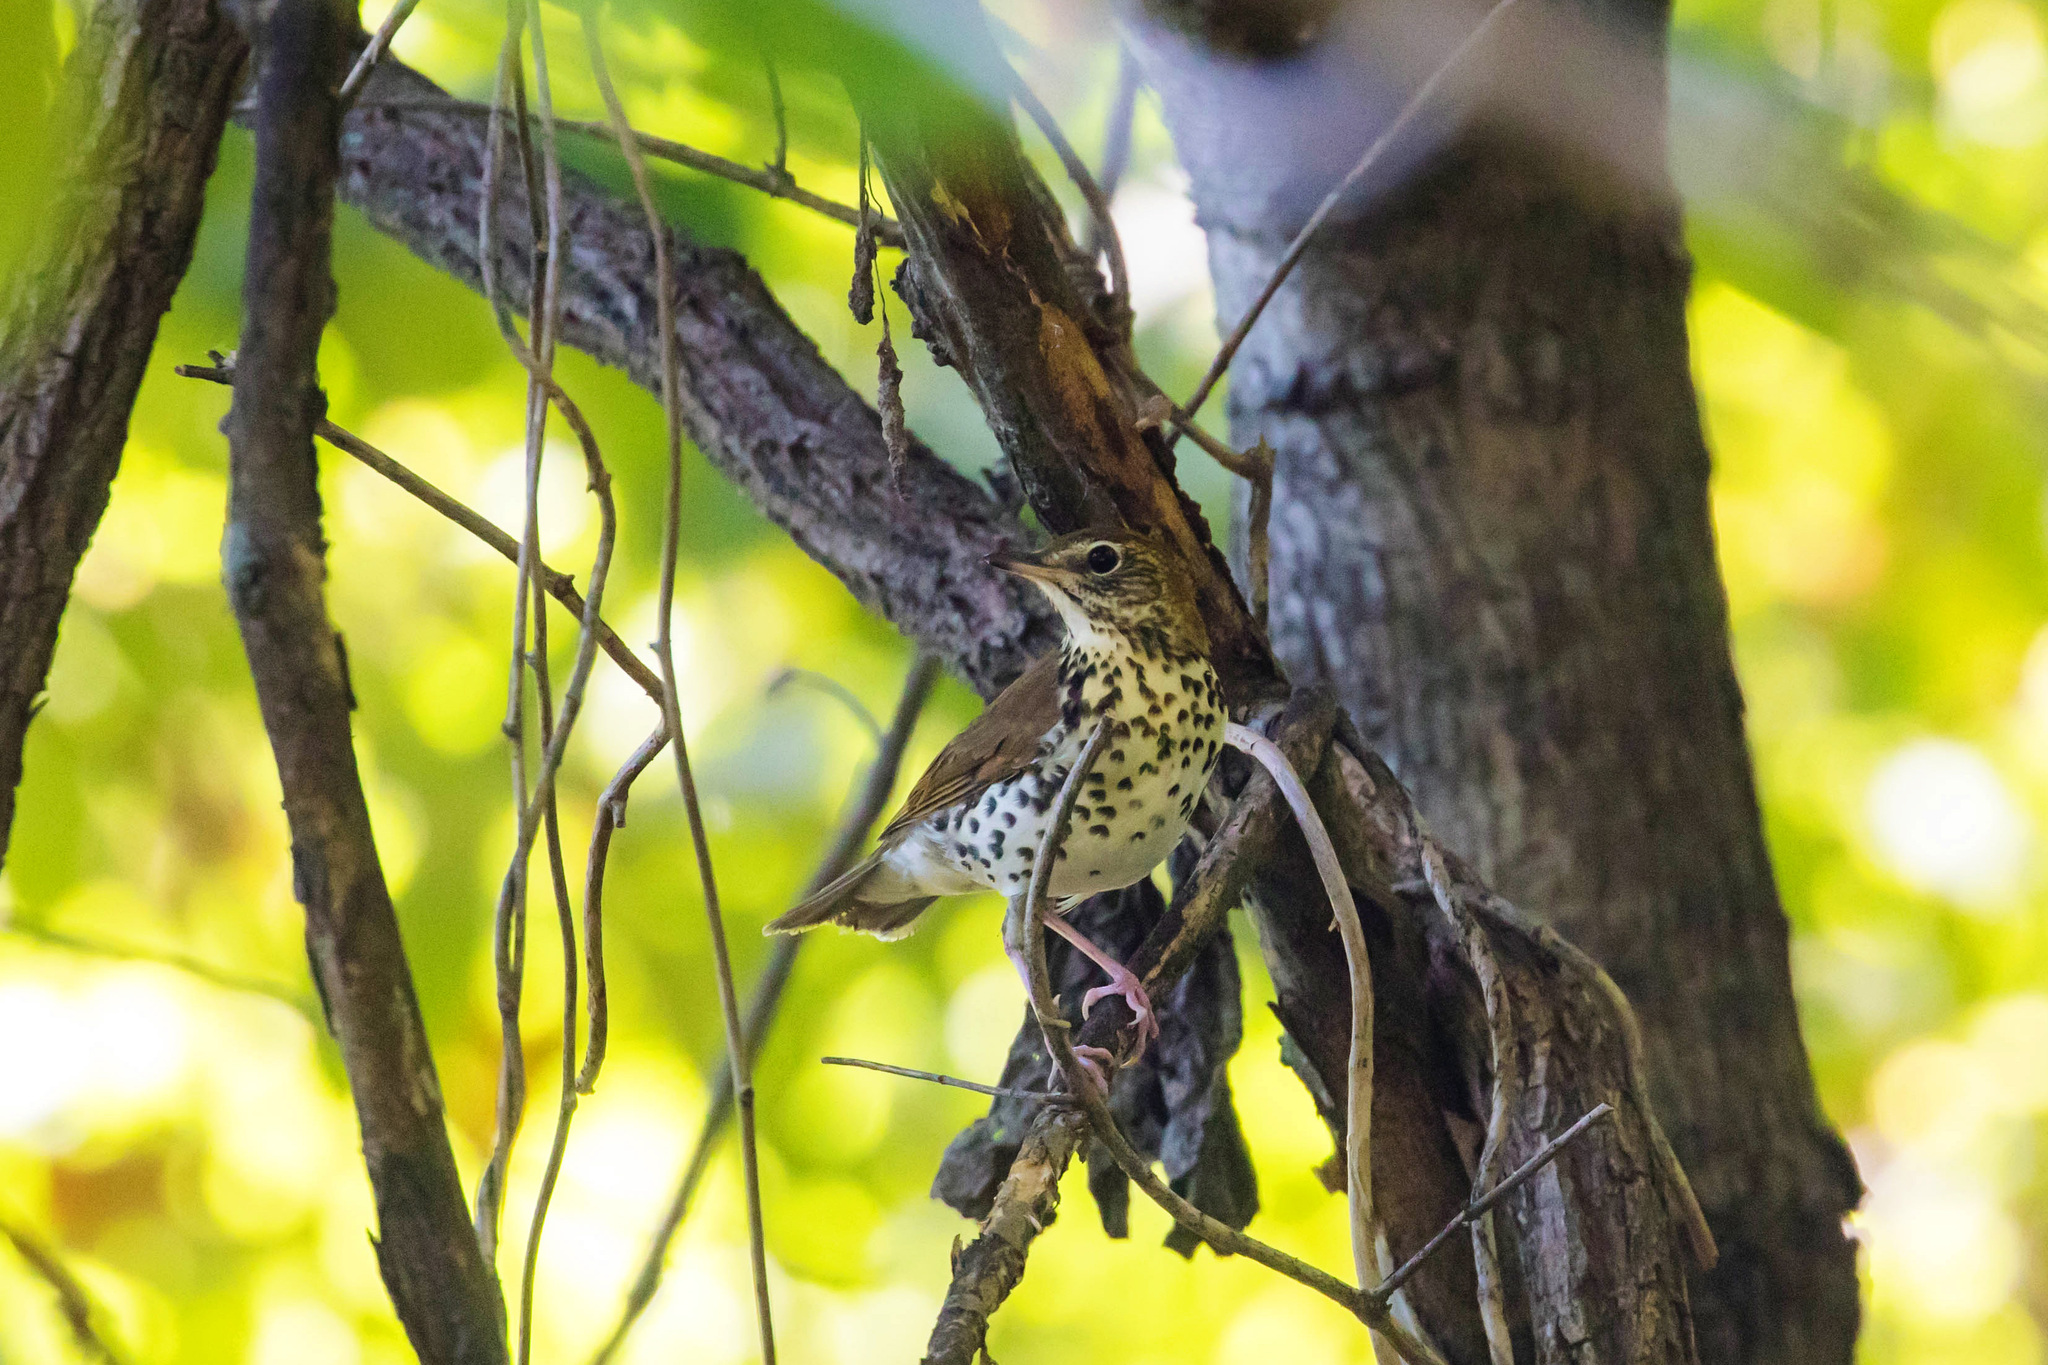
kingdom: Animalia
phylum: Chordata
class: Aves
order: Passeriformes
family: Turdidae
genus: Hylocichla
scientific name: Hylocichla mustelina
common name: Wood thrush
